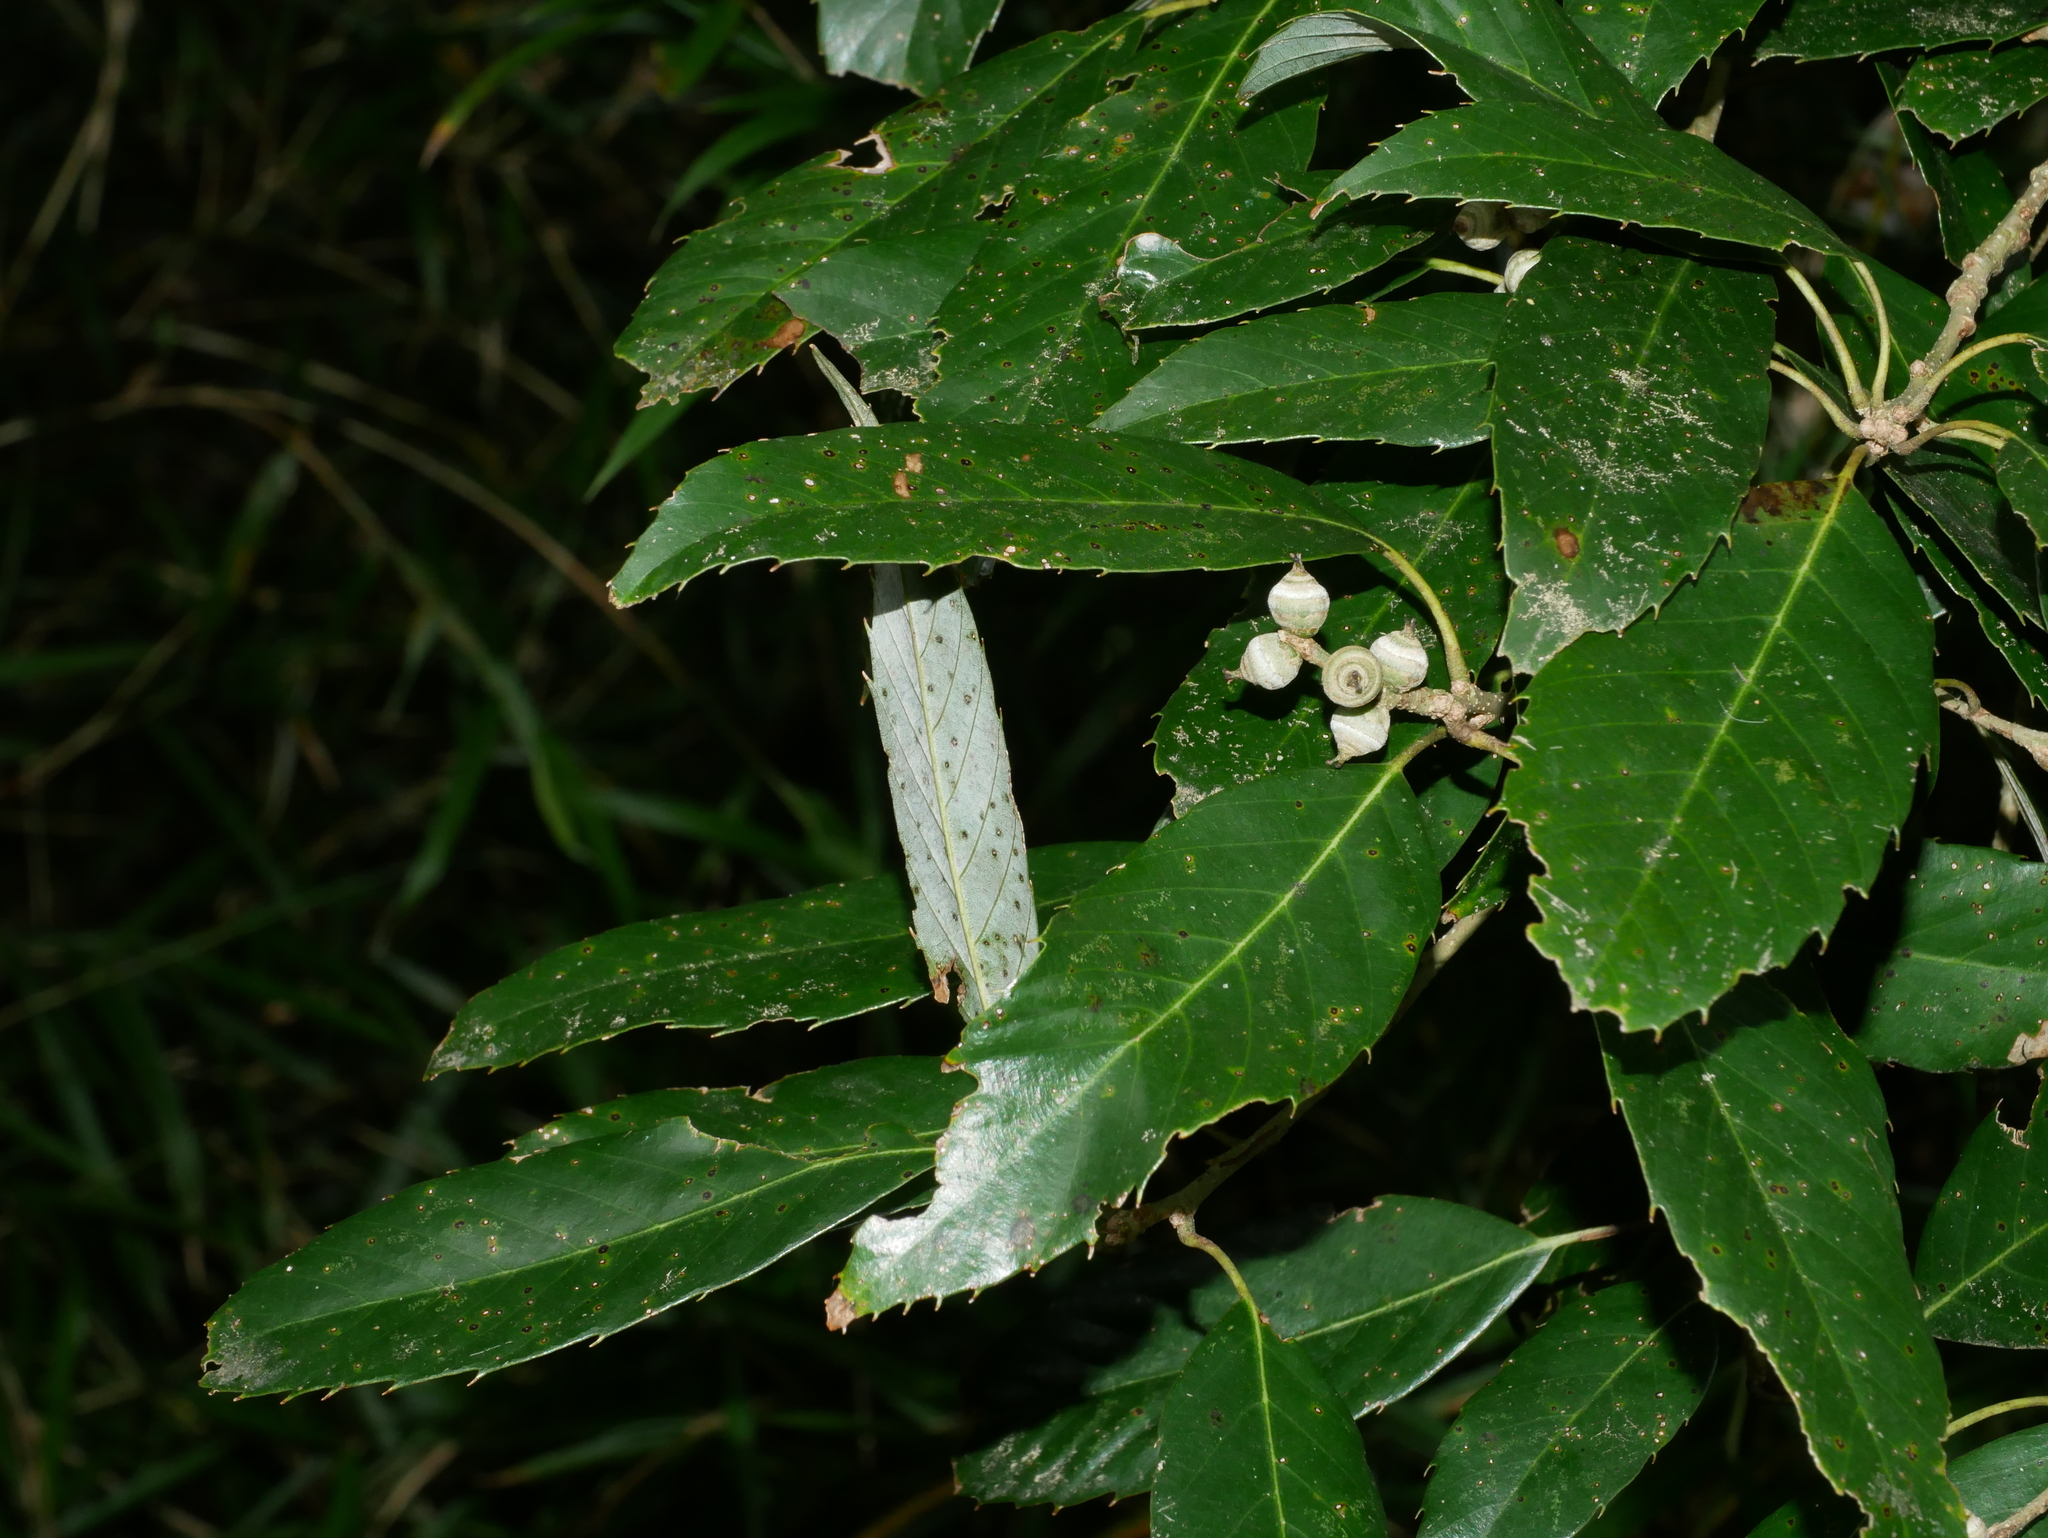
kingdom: Plantae
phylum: Tracheophyta
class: Magnoliopsida
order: Fagales
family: Fagaceae
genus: Quercus
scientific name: Quercus stenophylloides
